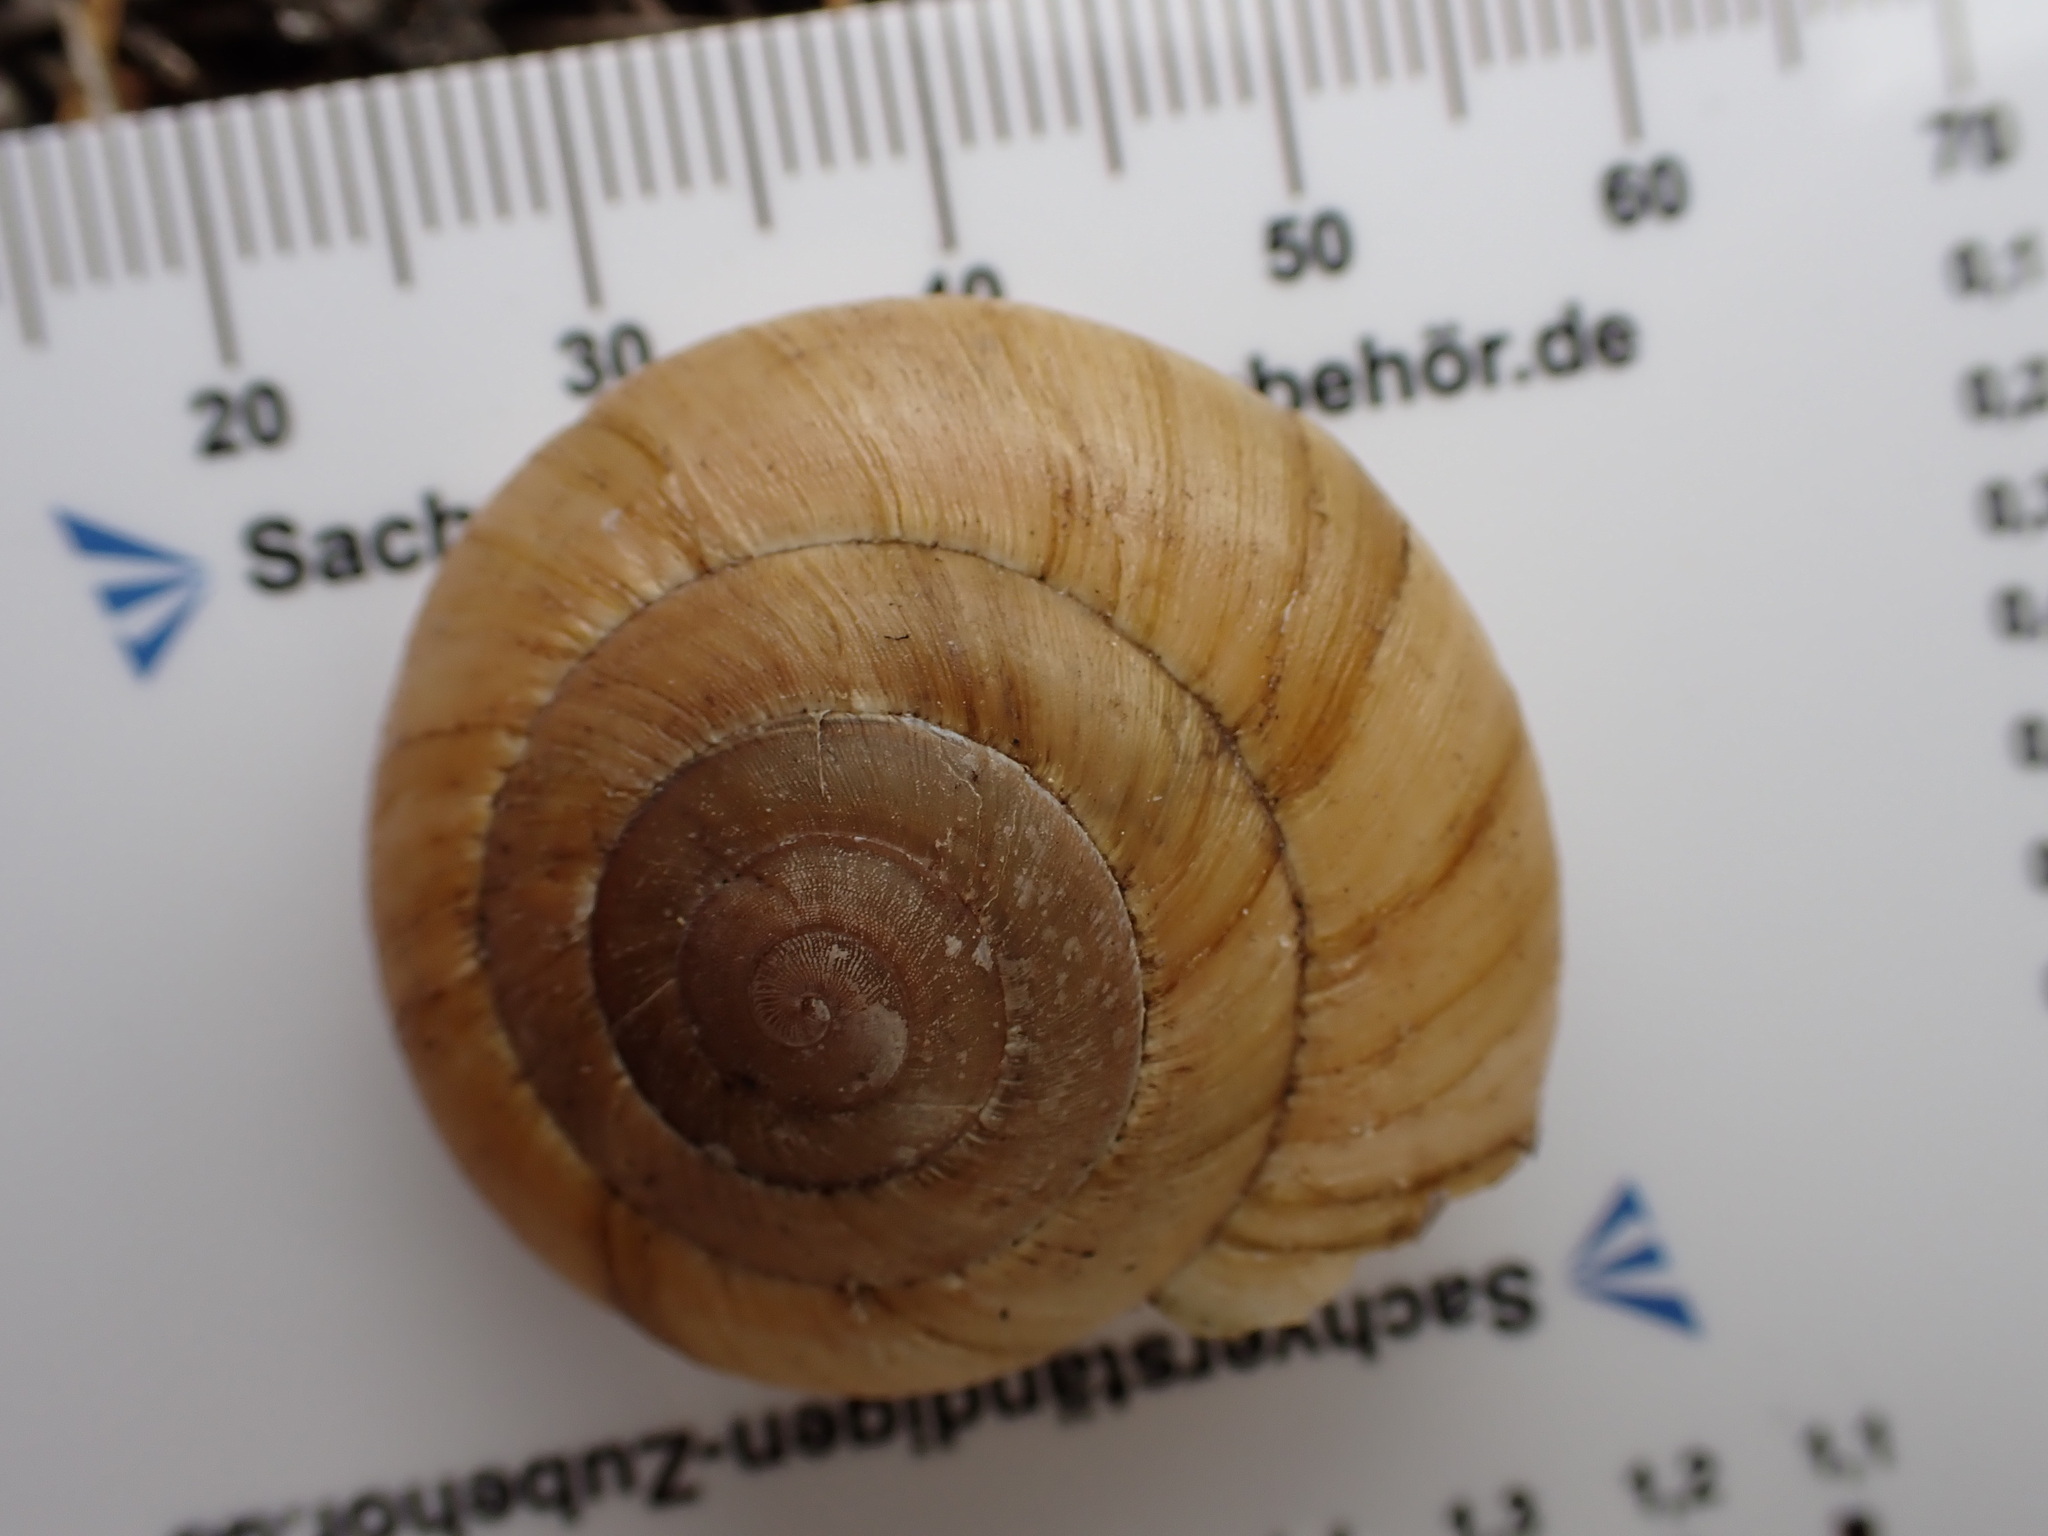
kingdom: Animalia
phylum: Mollusca
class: Gastropoda
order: Stylommatophora
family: Zonitidae
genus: Zonites
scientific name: Zonites algirus
